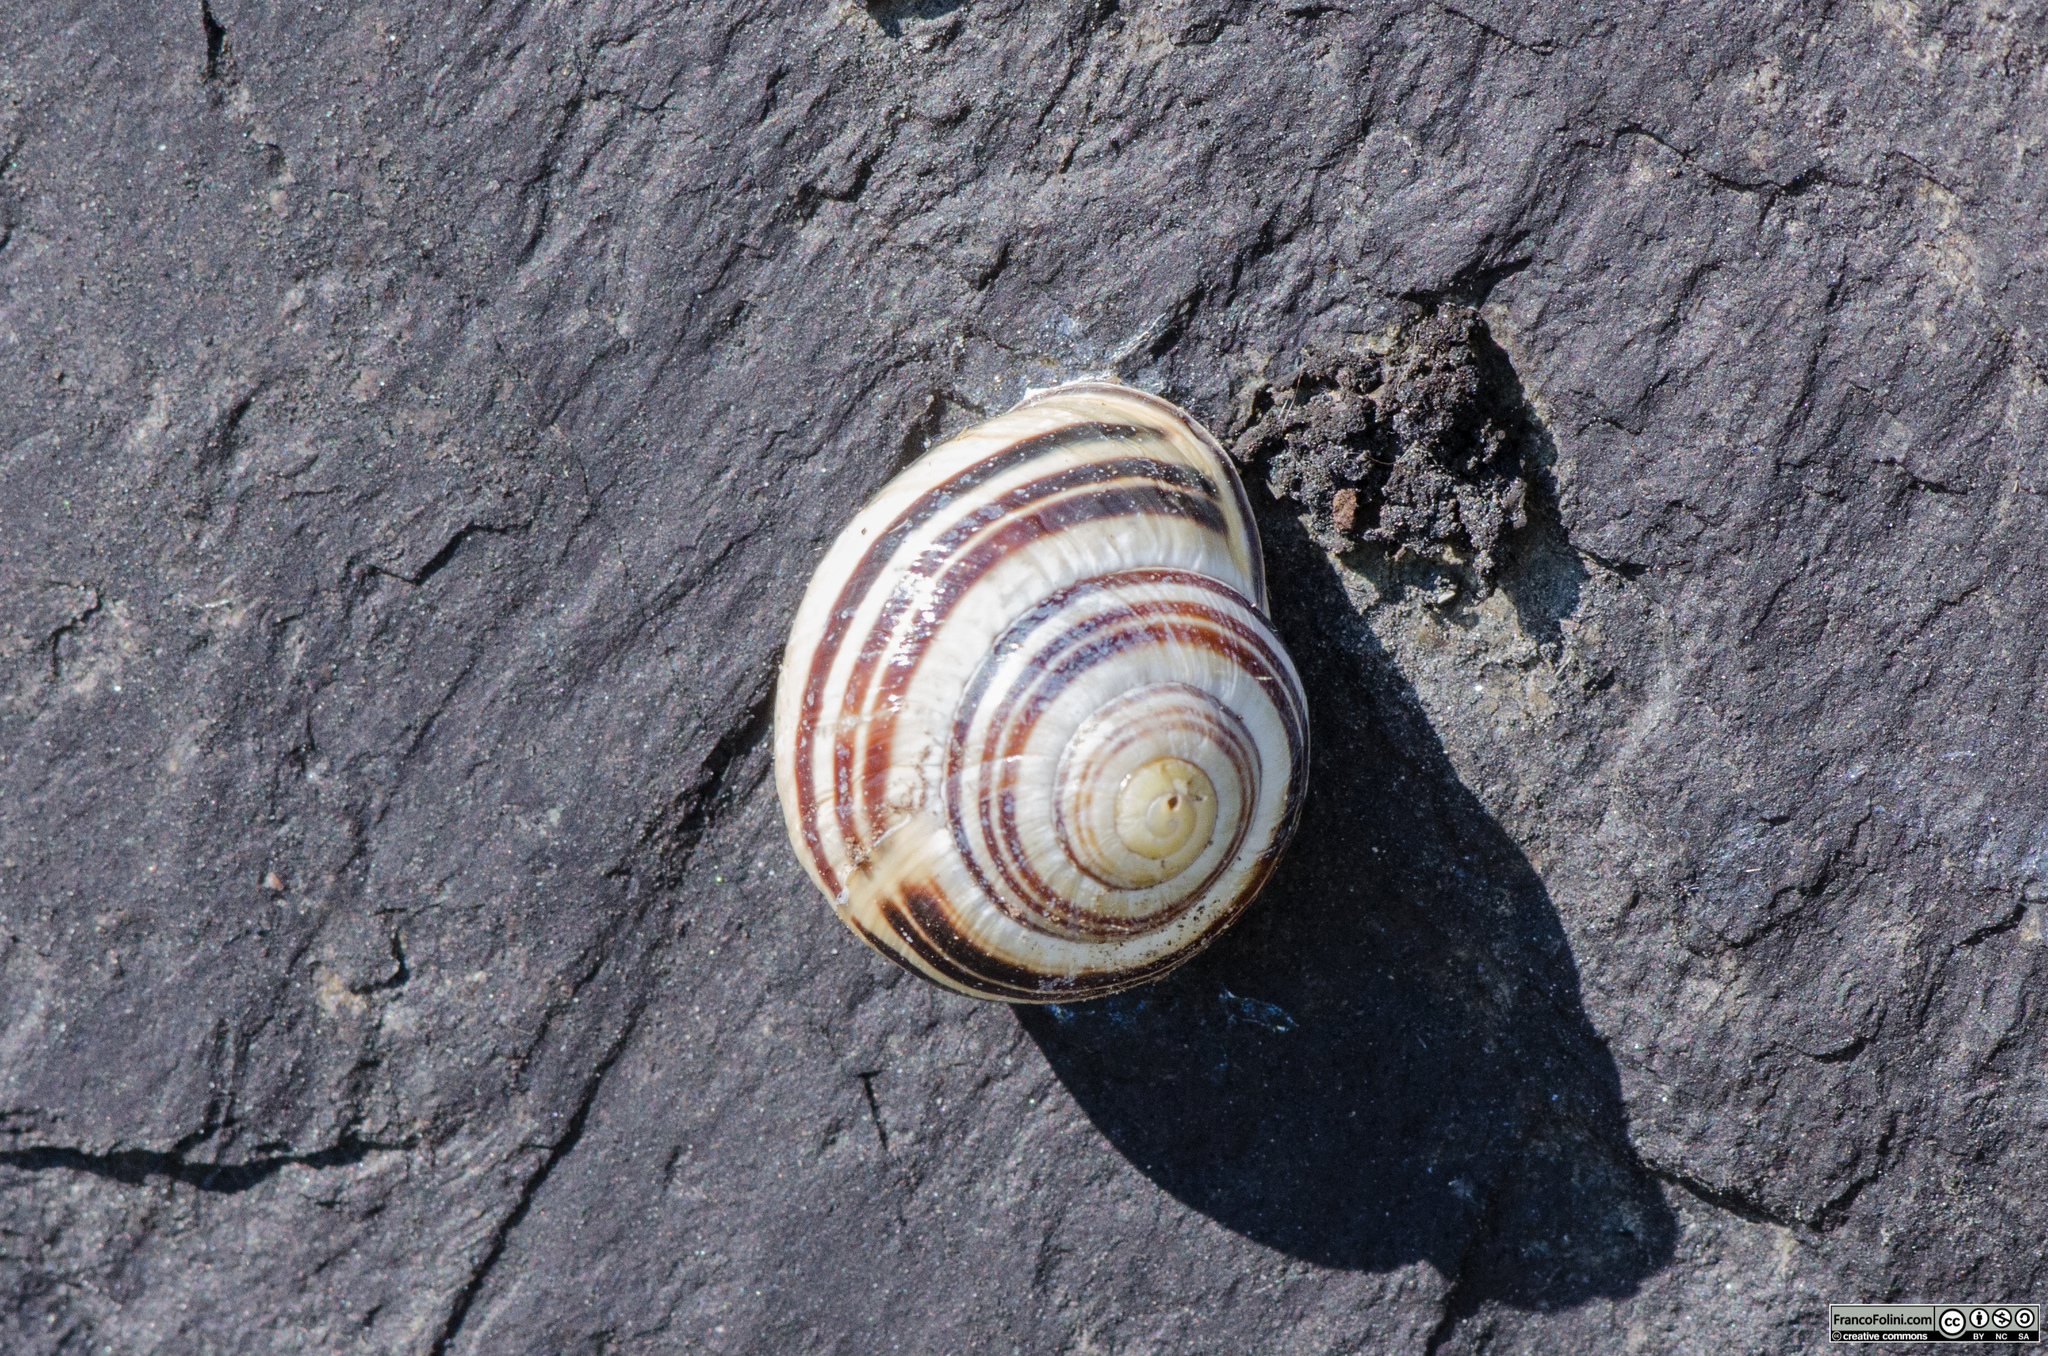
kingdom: Animalia
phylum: Mollusca
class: Gastropoda
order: Stylommatophora
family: Helicidae
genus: Cepaea
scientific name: Cepaea nemoralis
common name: Grovesnail
